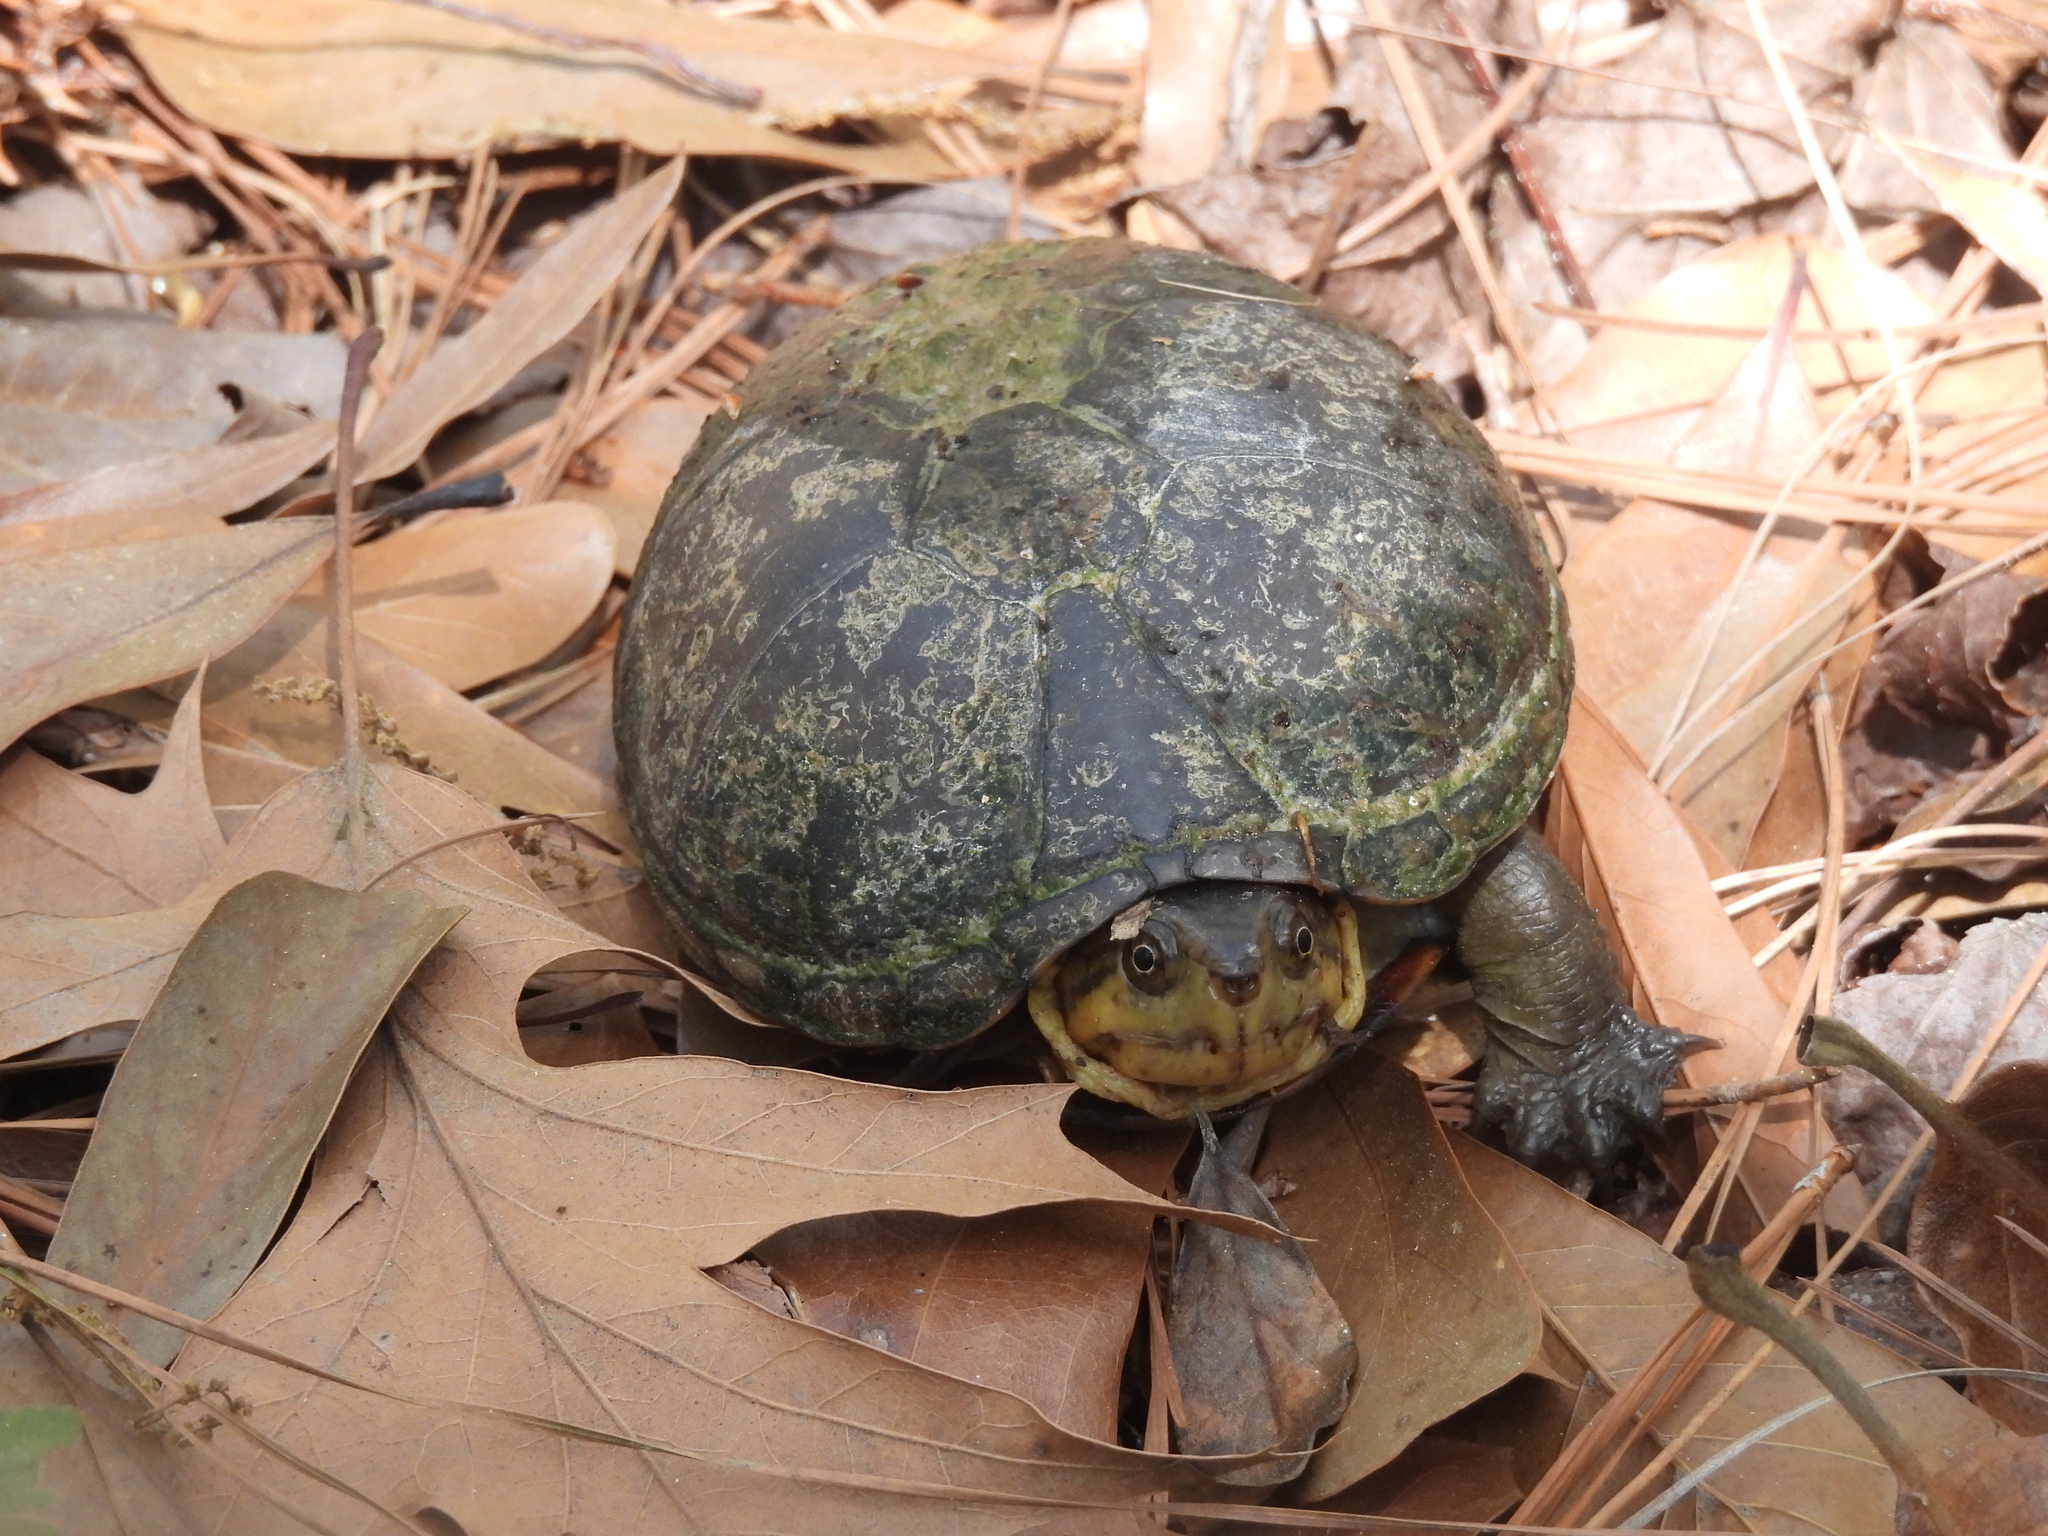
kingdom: Animalia
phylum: Chordata
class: Testudines
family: Kinosternidae
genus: Kinosternon
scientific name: Kinosternon subrubrum
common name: Eastern mud turtle
